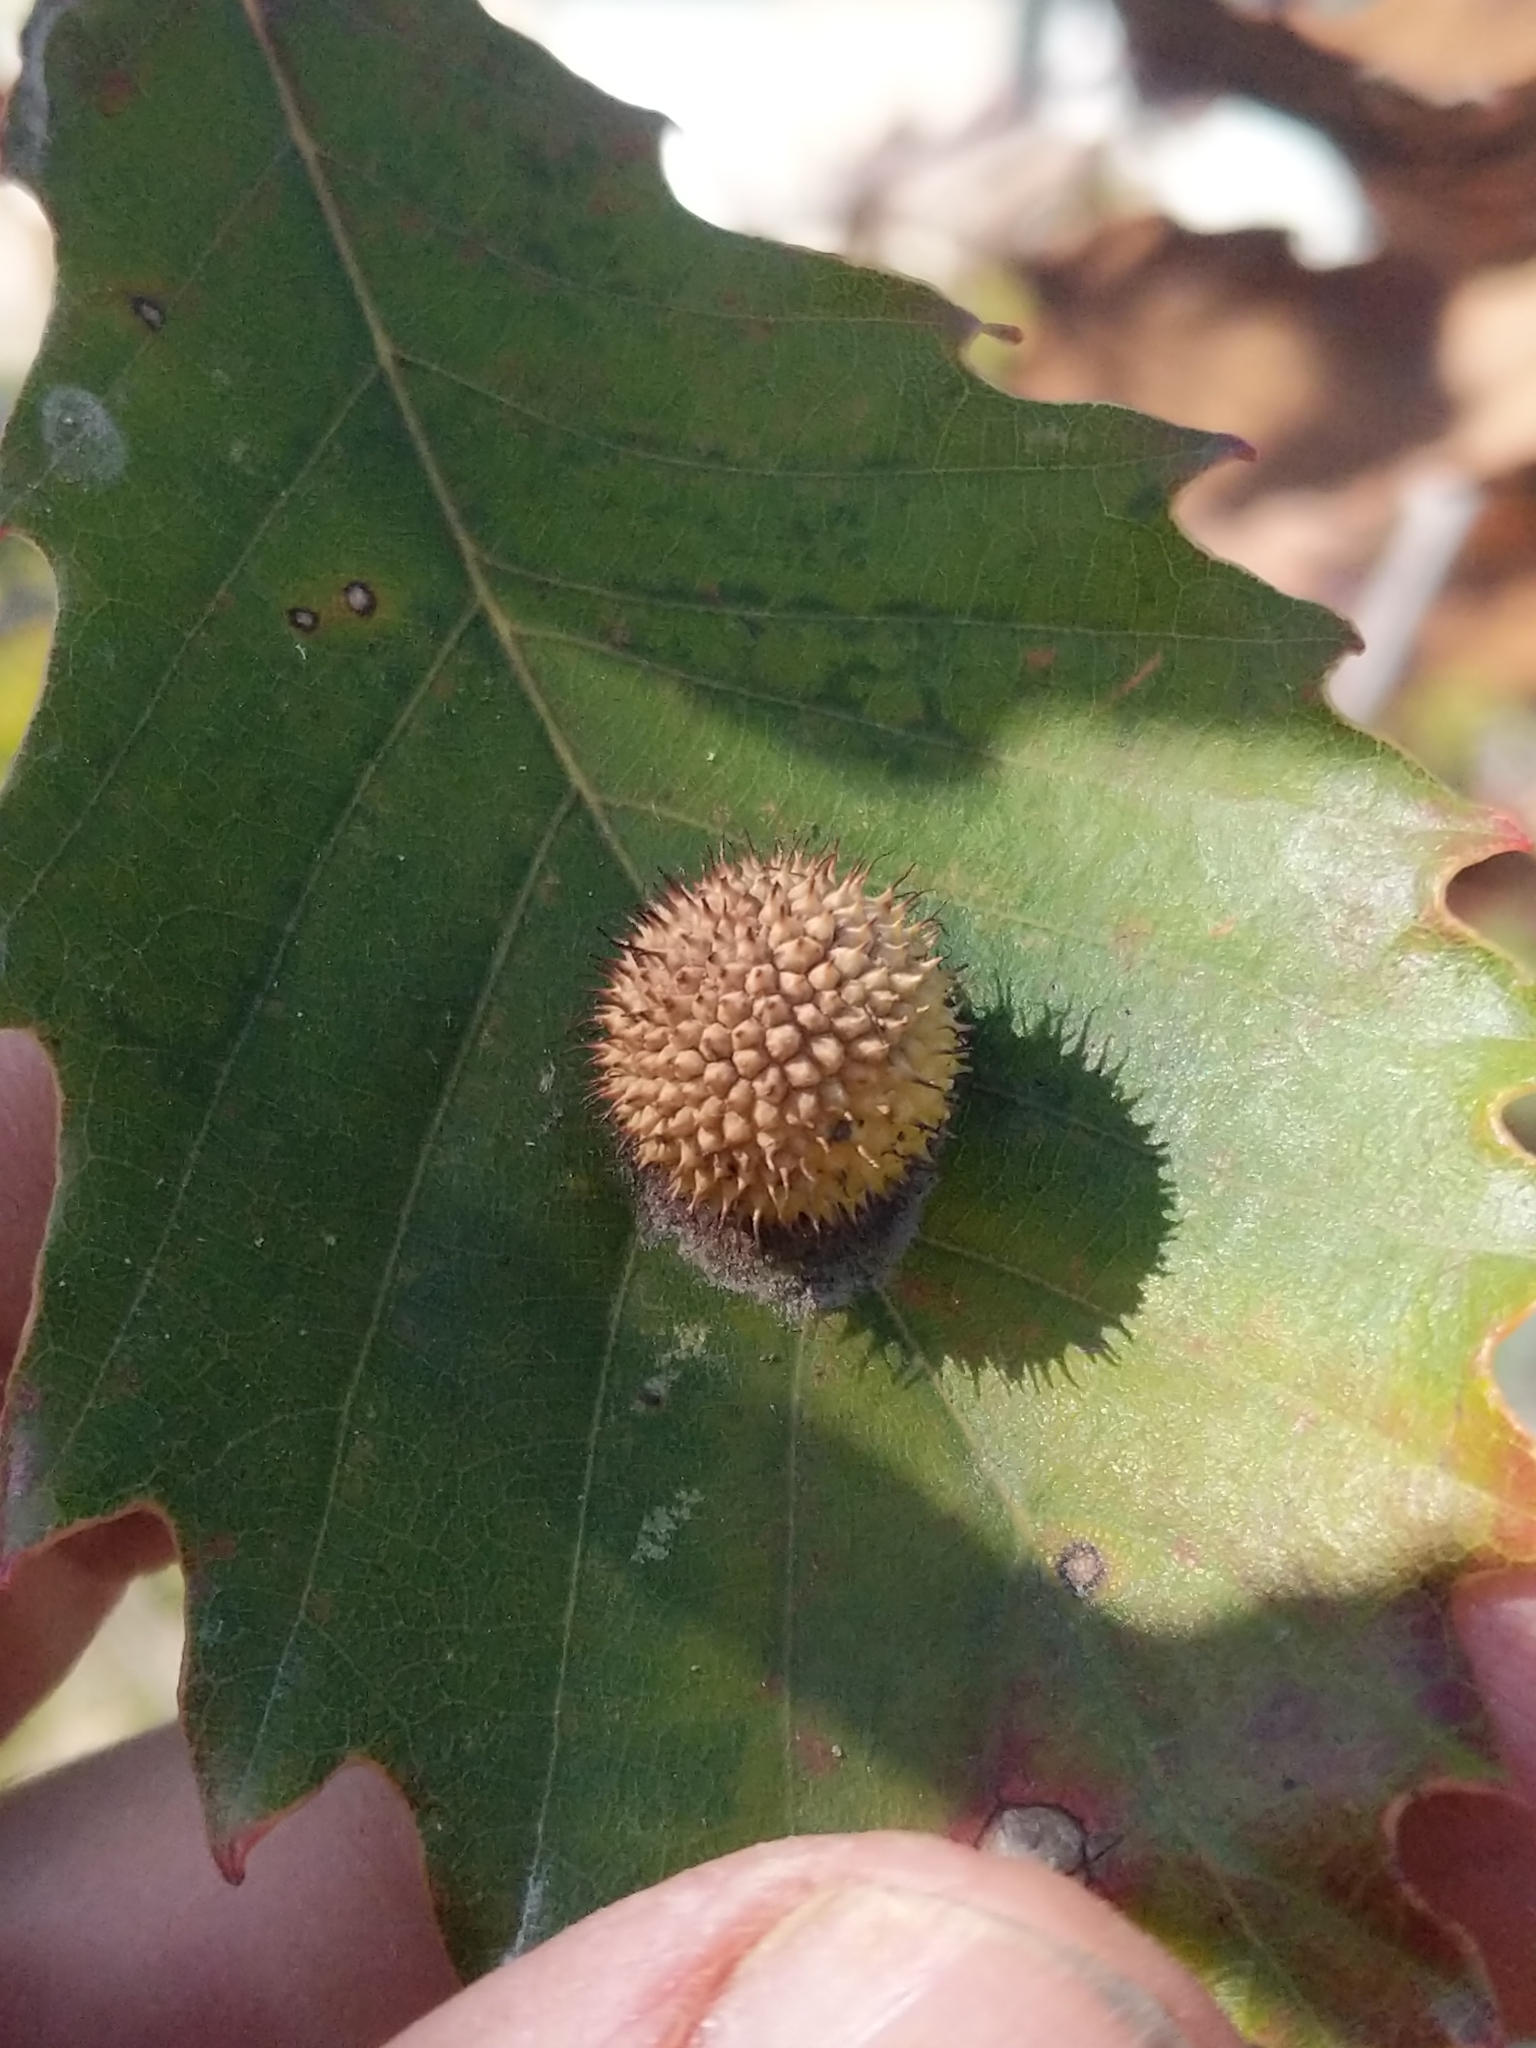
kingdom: Animalia
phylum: Arthropoda
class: Insecta
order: Hymenoptera
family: Cynipidae
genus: Acraspis
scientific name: Acraspis
